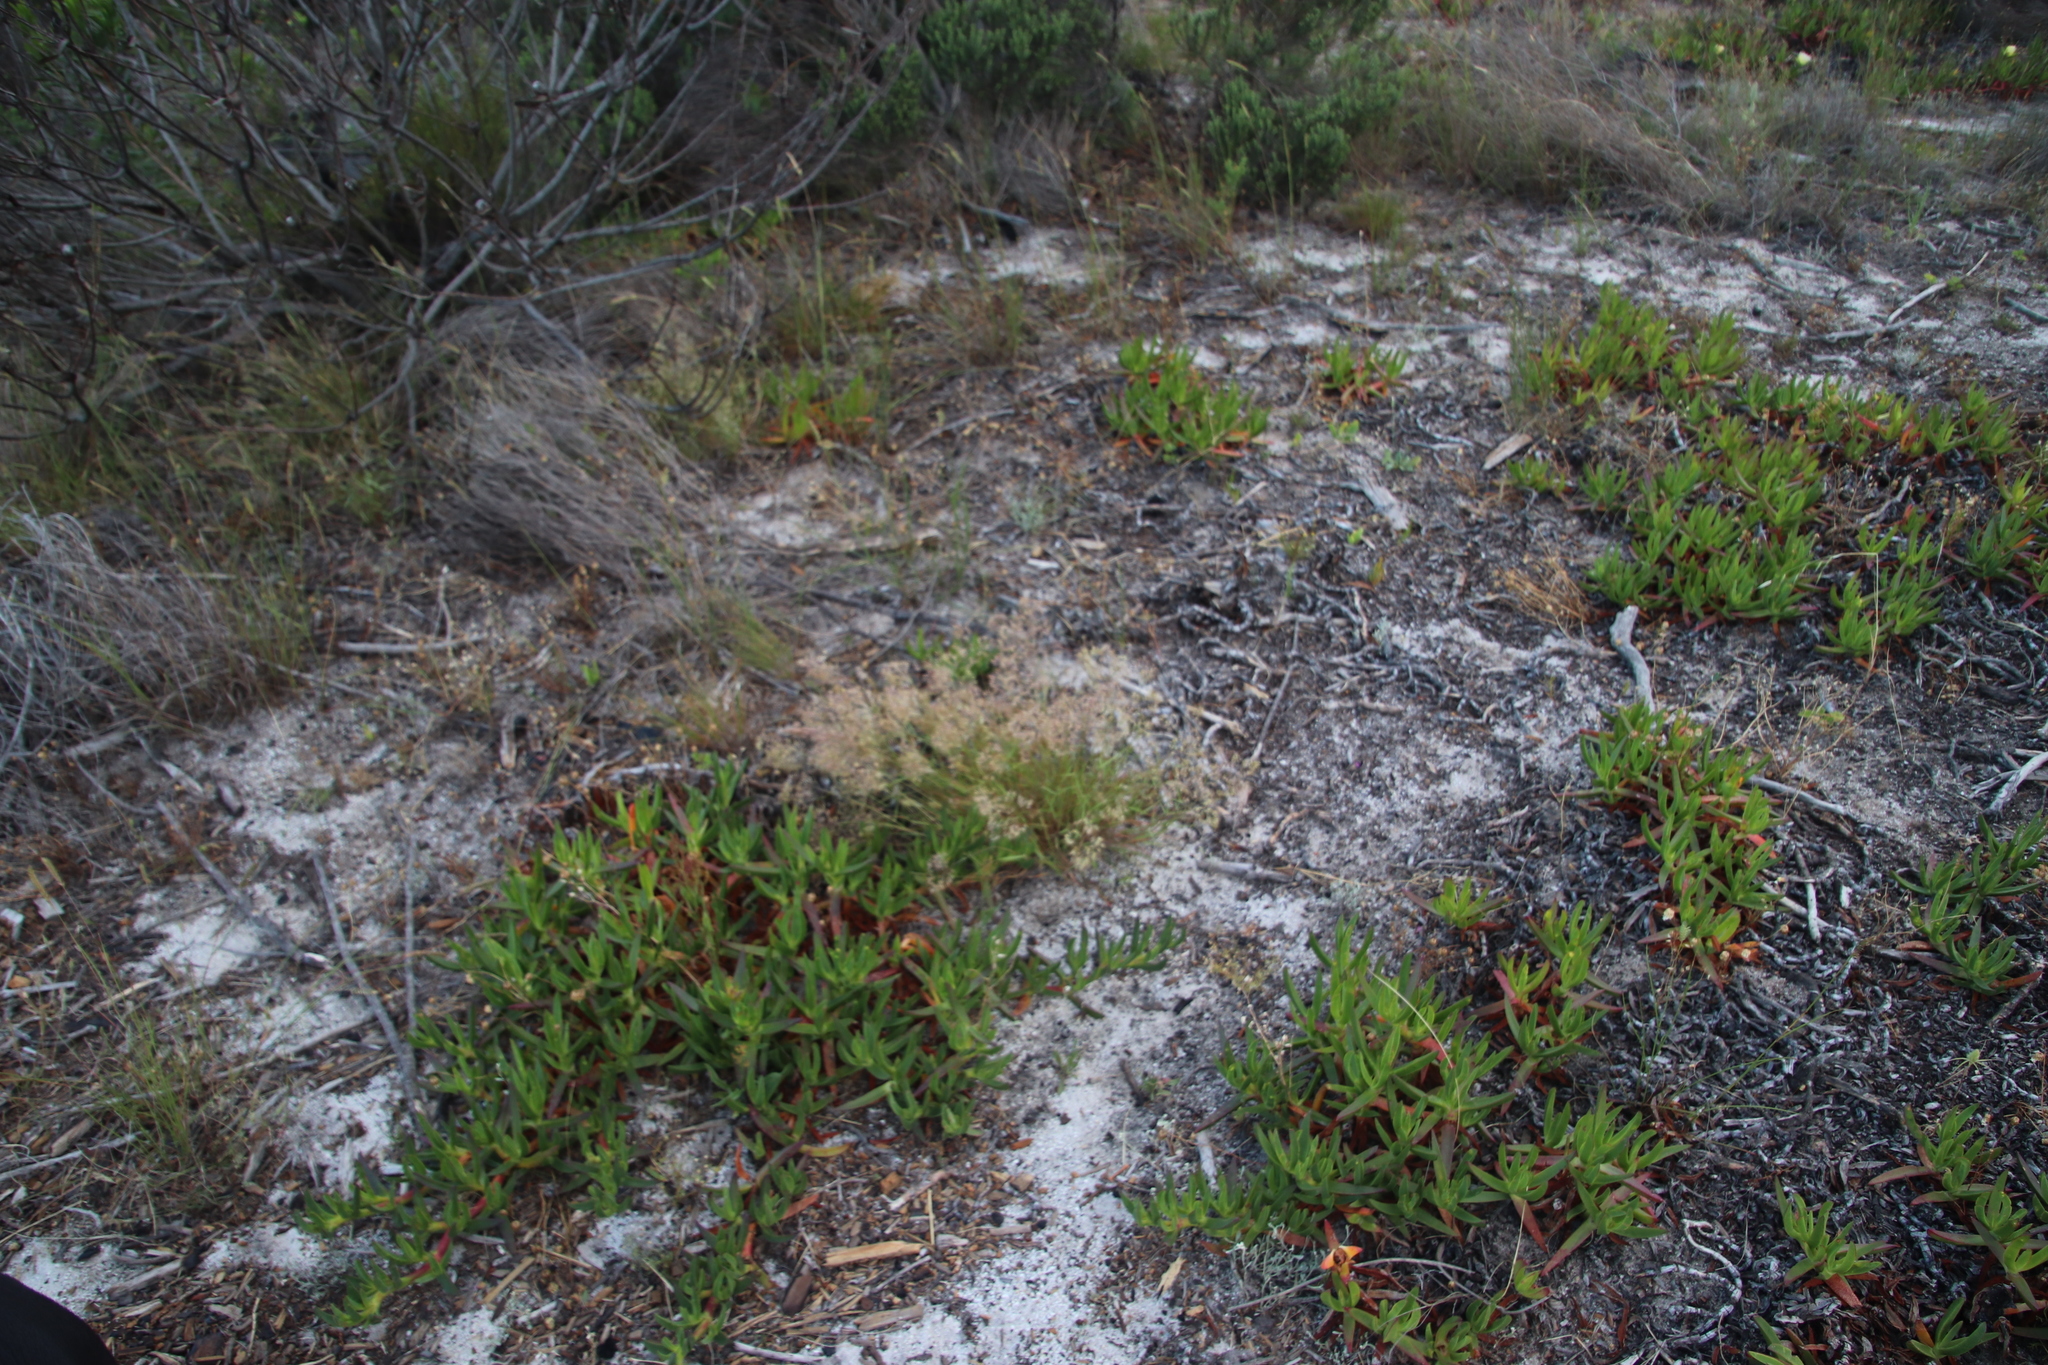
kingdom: Plantae
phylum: Tracheophyta
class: Liliopsida
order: Poales
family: Poaceae
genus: Pentameris
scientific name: Pentameris airoides
